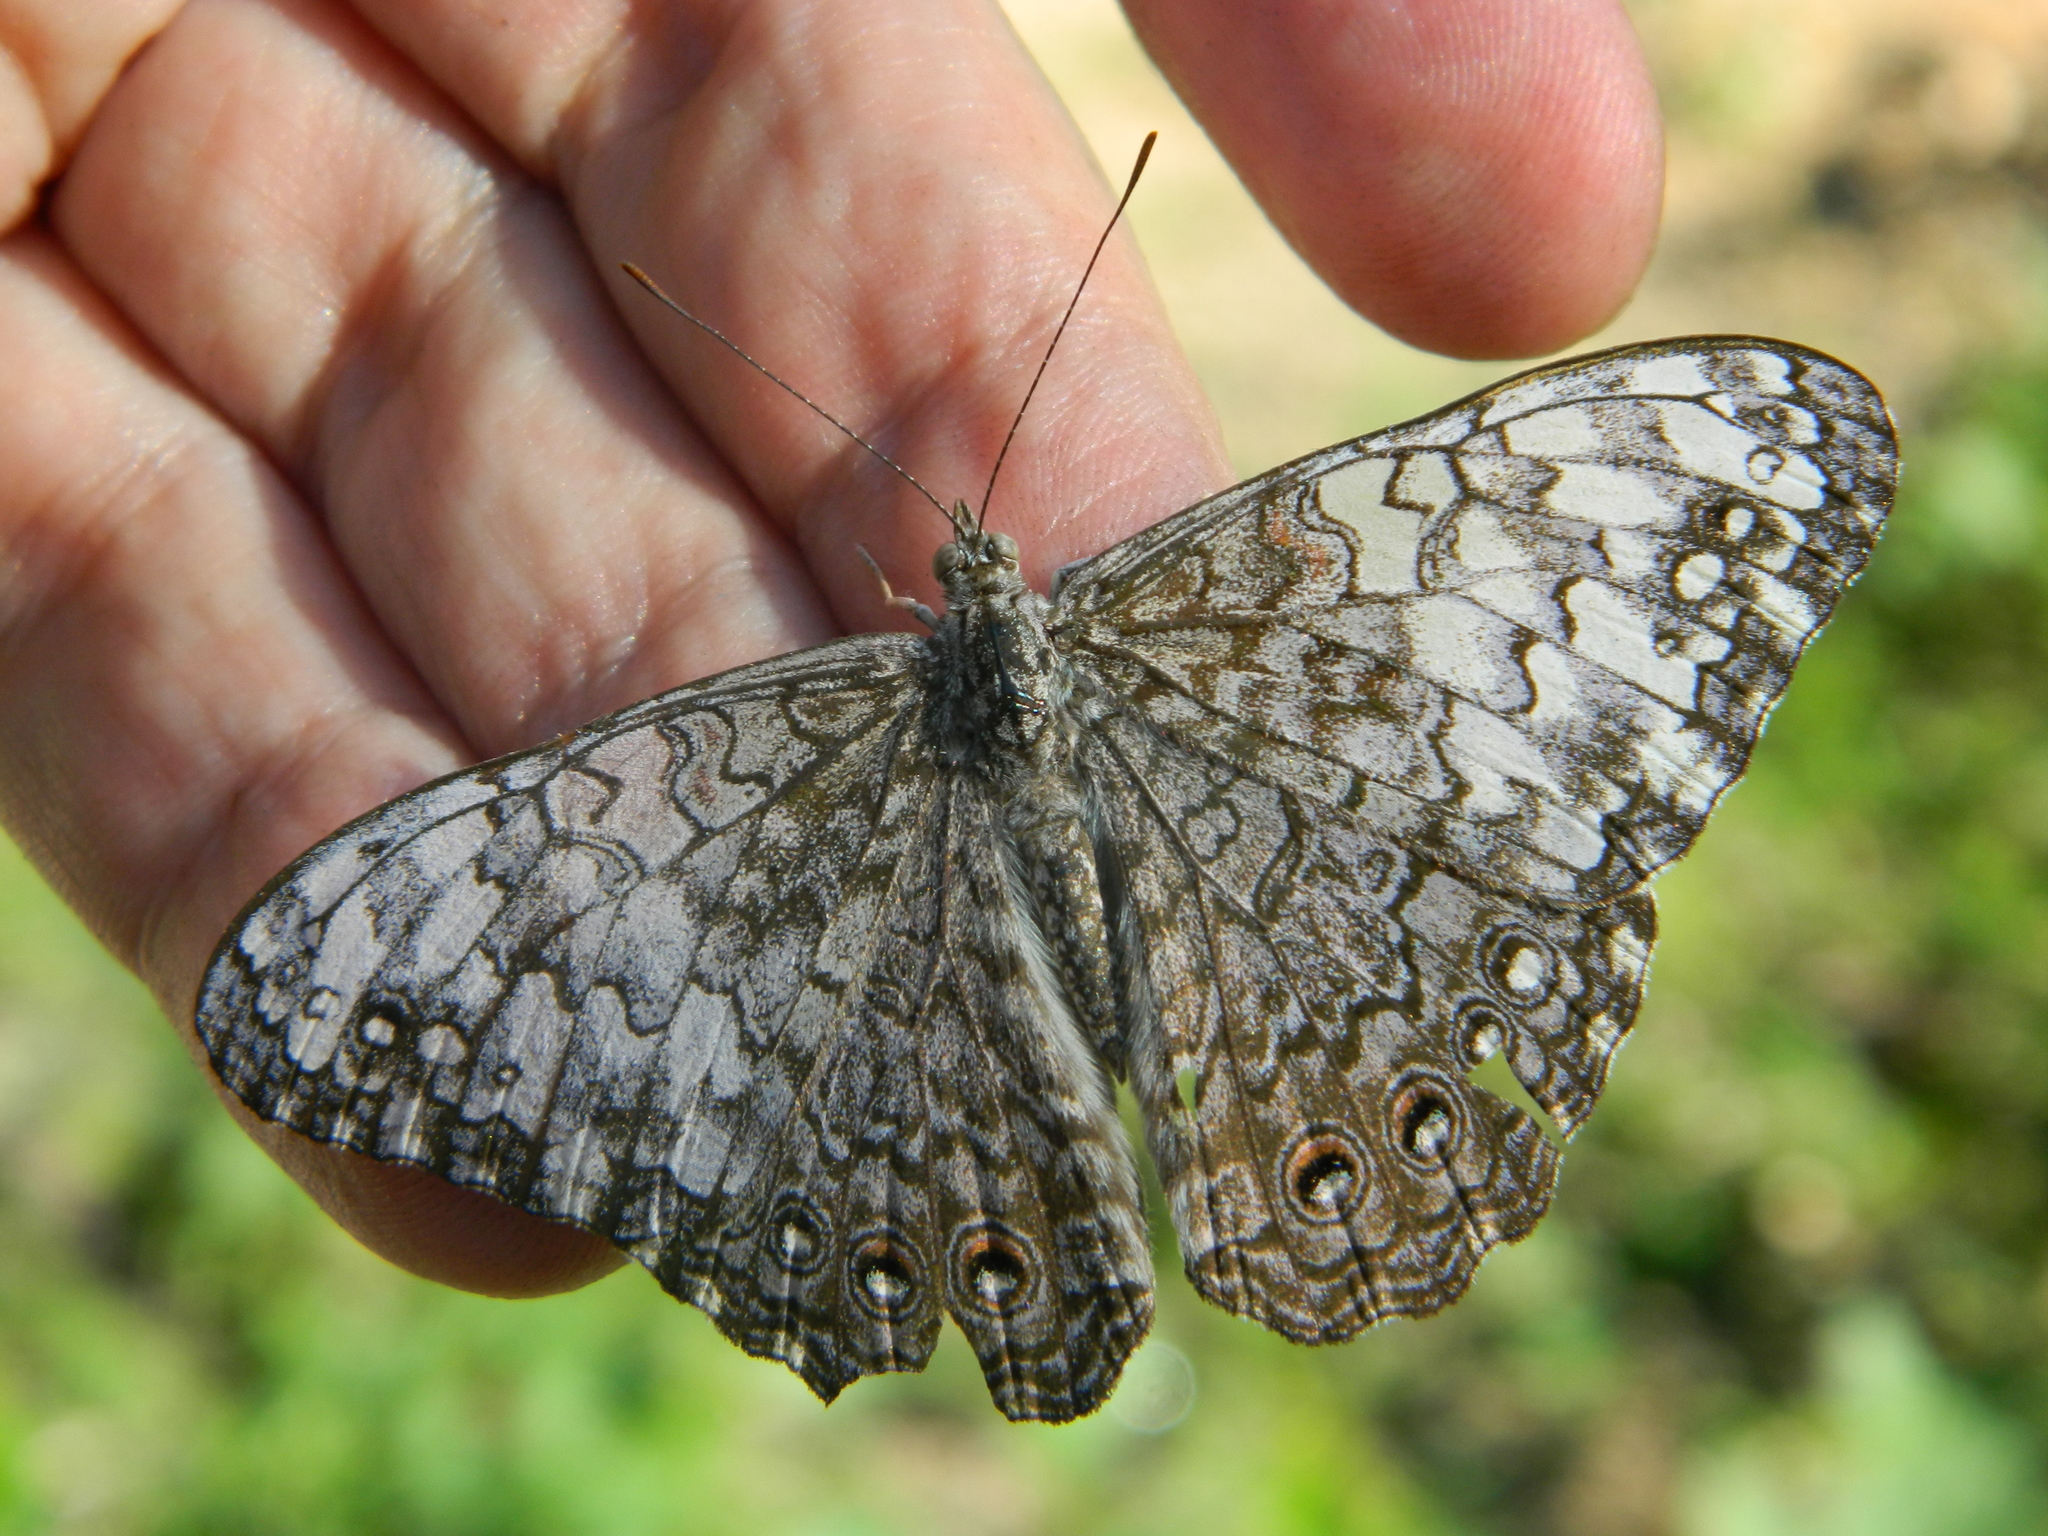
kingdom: Animalia
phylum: Arthropoda
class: Insecta
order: Lepidoptera
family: Nymphalidae
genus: Hamadryas
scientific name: Hamadryas februa
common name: Gray cracker
